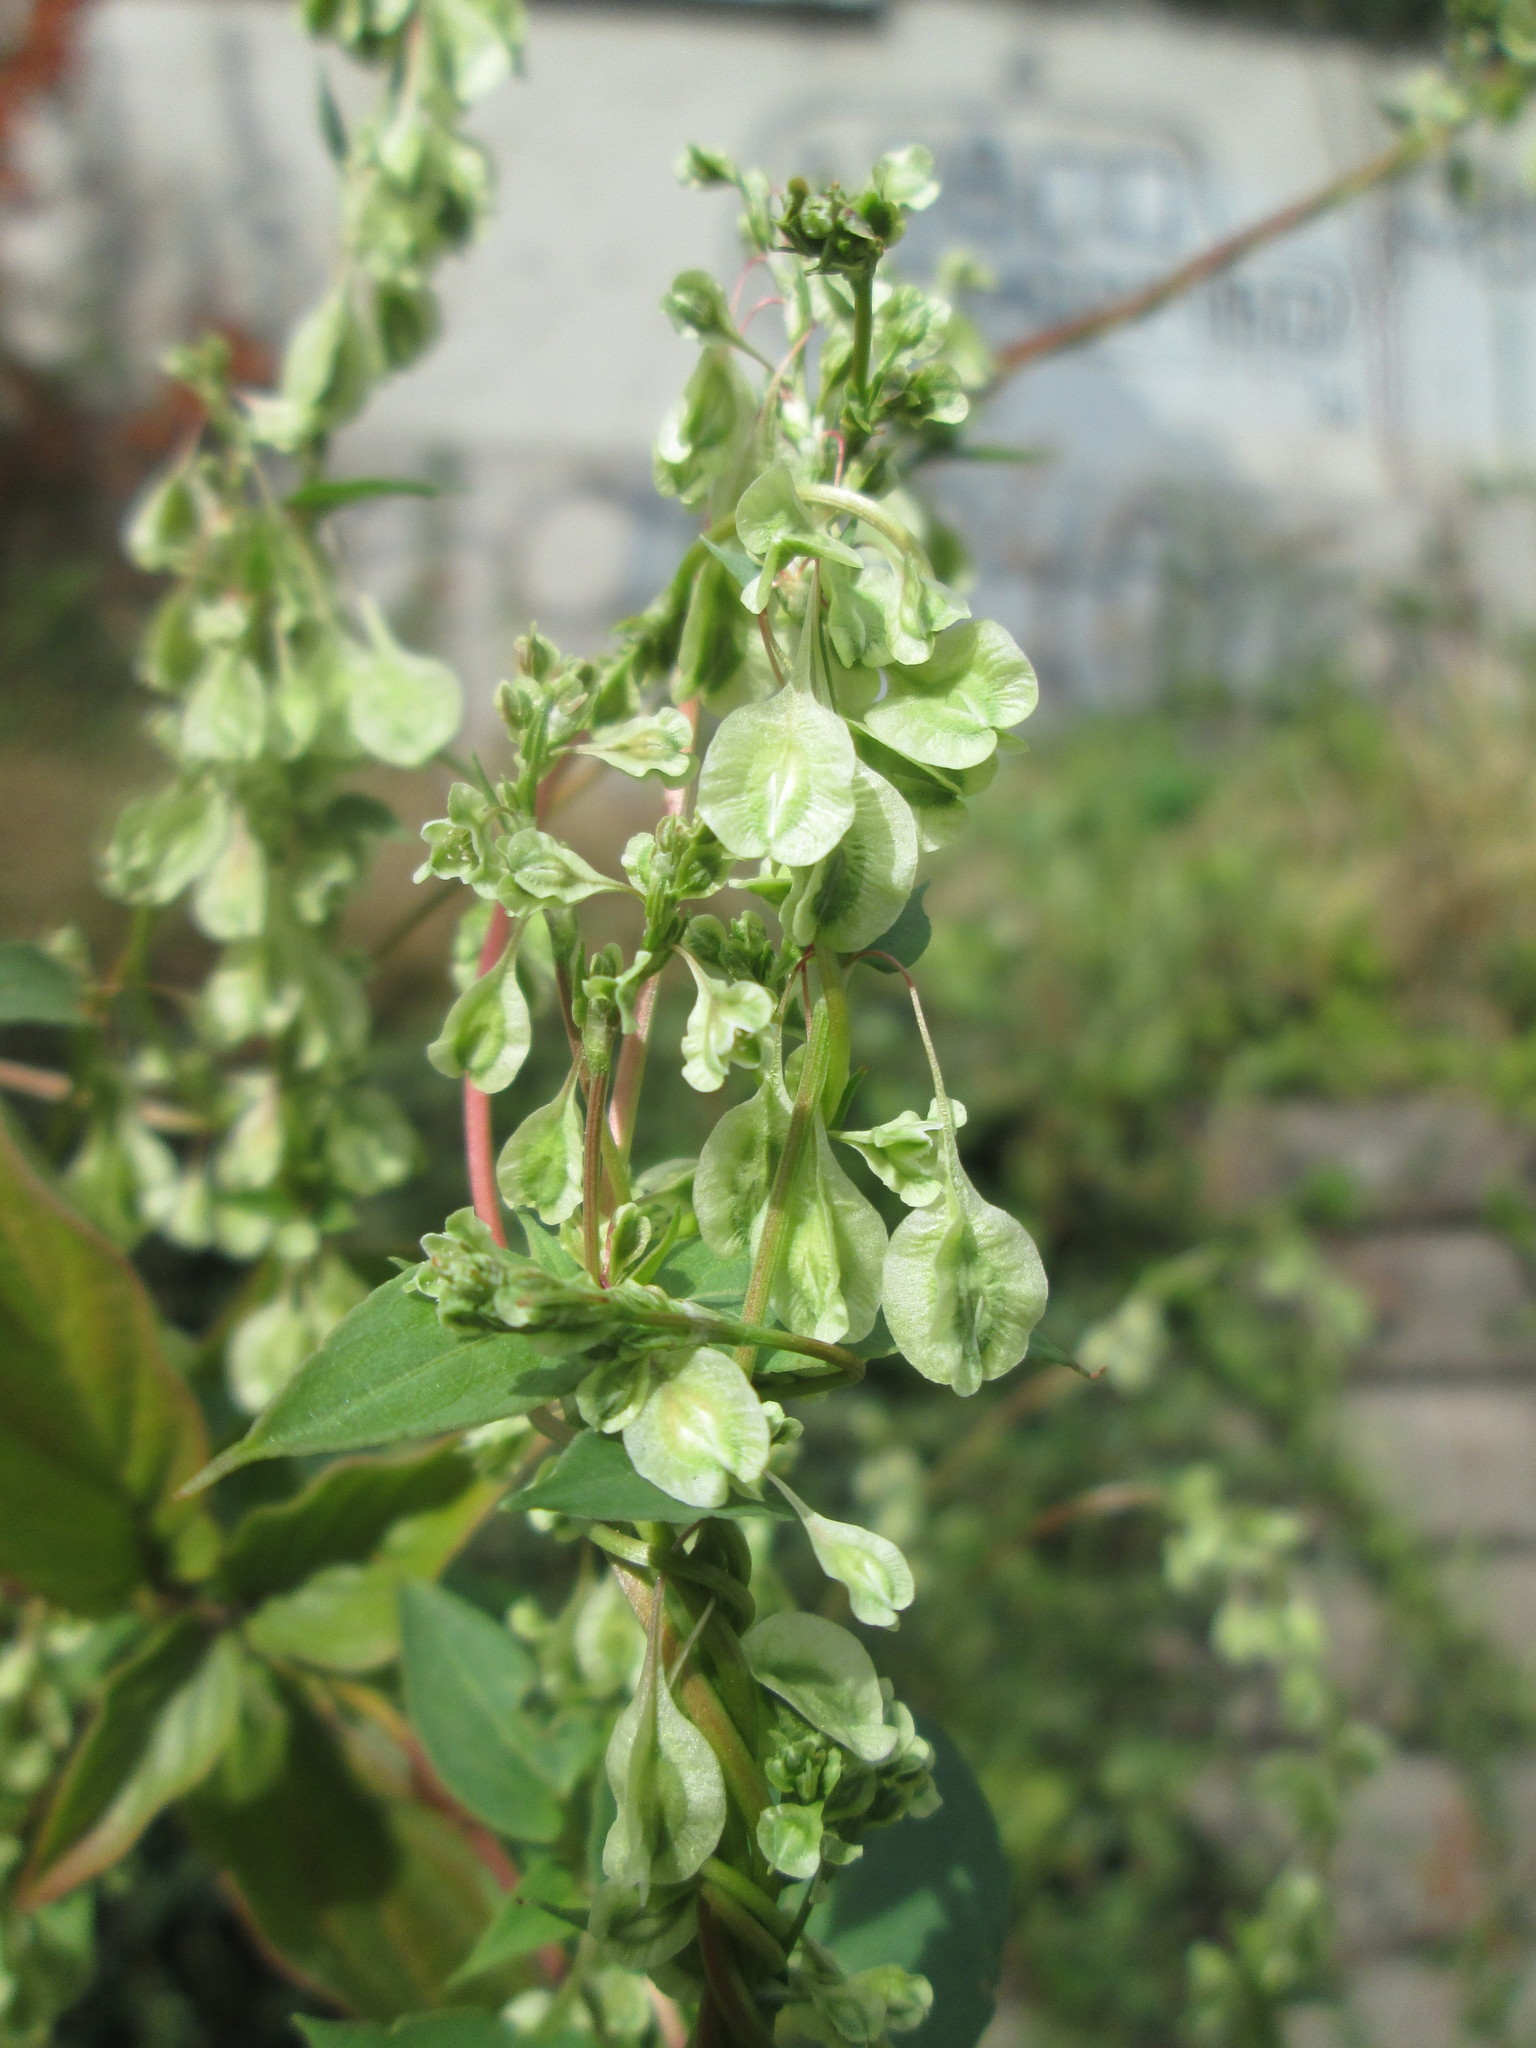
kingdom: Plantae
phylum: Tracheophyta
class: Magnoliopsida
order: Caryophyllales
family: Polygonaceae
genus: Fallopia
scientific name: Fallopia dumetorum
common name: Copse-bindweed
